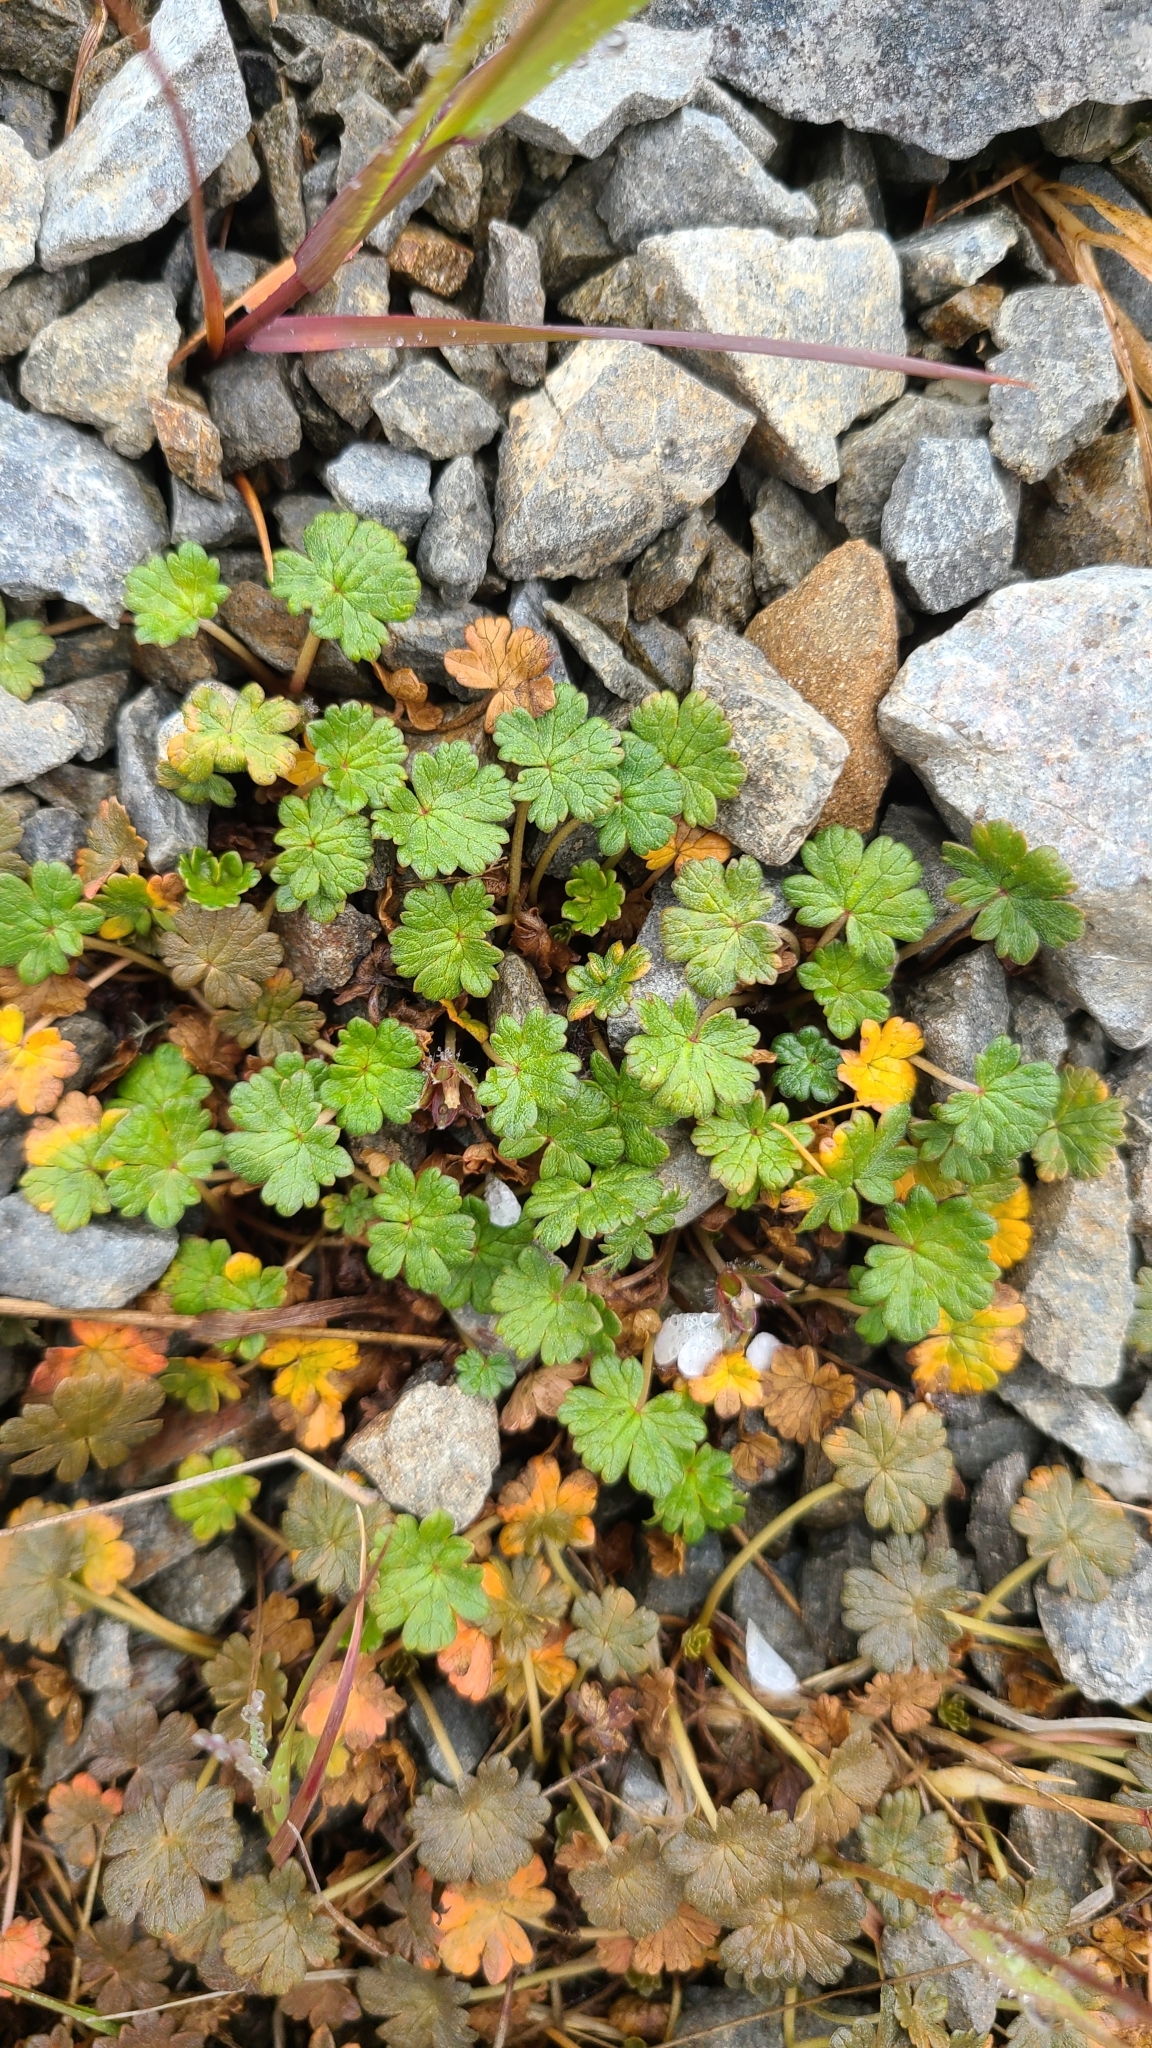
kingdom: Plantae
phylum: Tracheophyta
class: Magnoliopsida
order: Geraniales
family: Geraniaceae
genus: Geranium
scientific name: Geranium brevicaule
